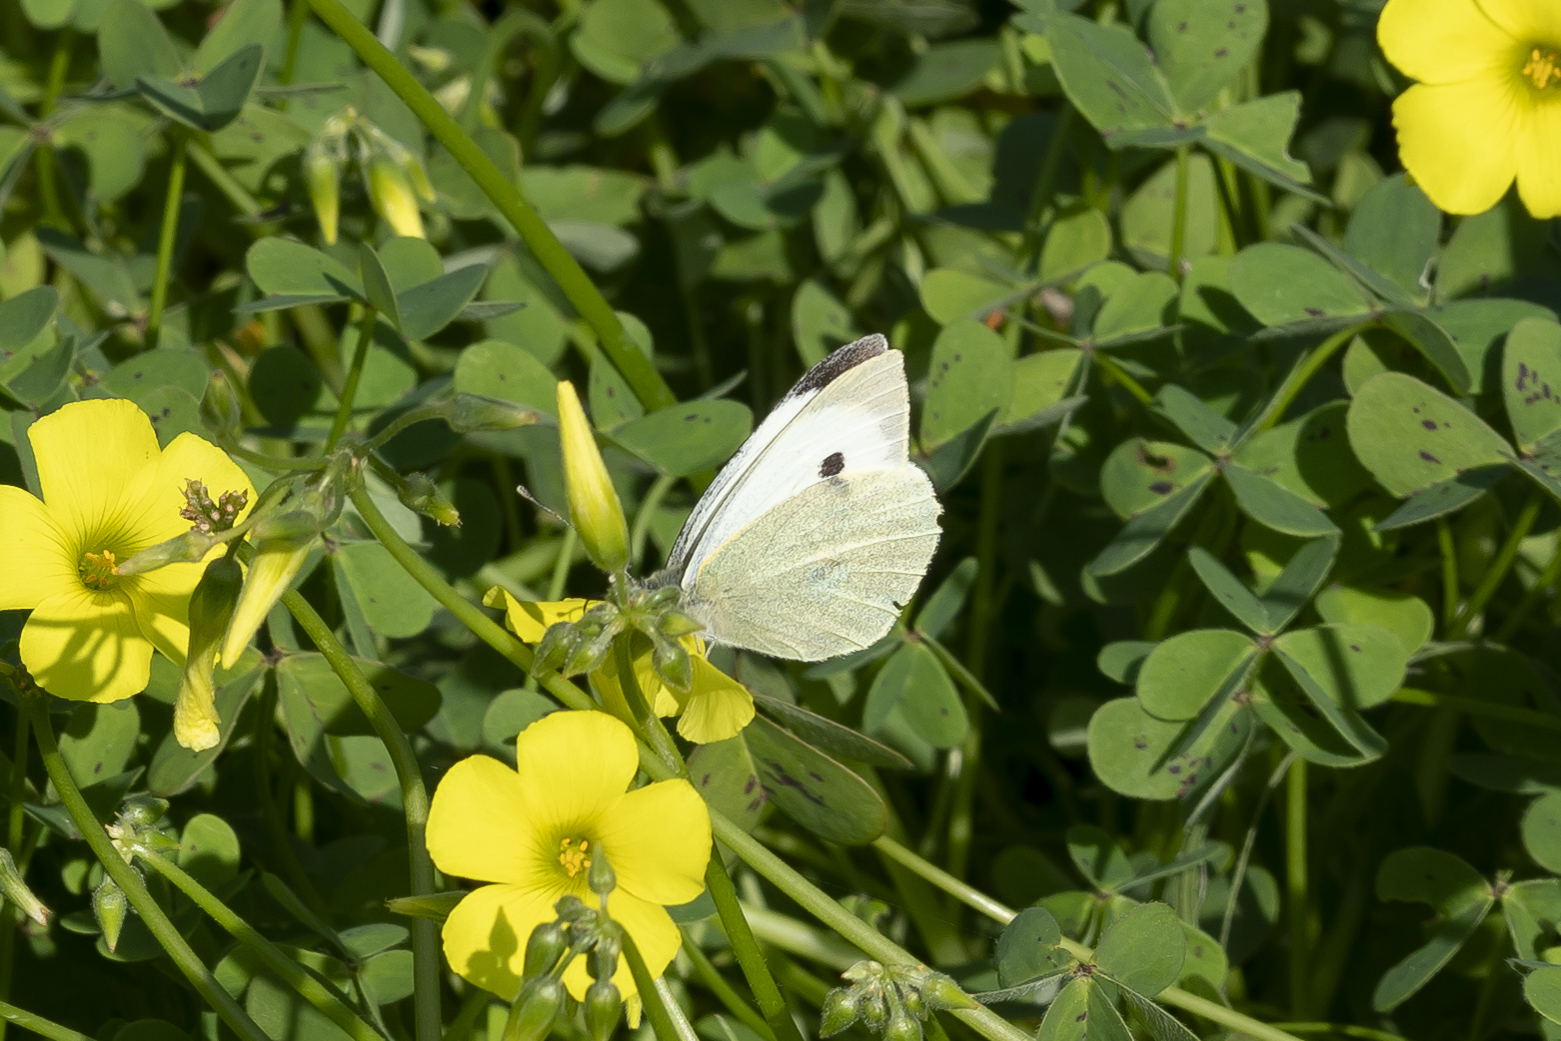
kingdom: Animalia
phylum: Arthropoda
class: Insecta
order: Lepidoptera
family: Pieridae
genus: Pieris
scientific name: Pieris brassicae
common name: Large white
